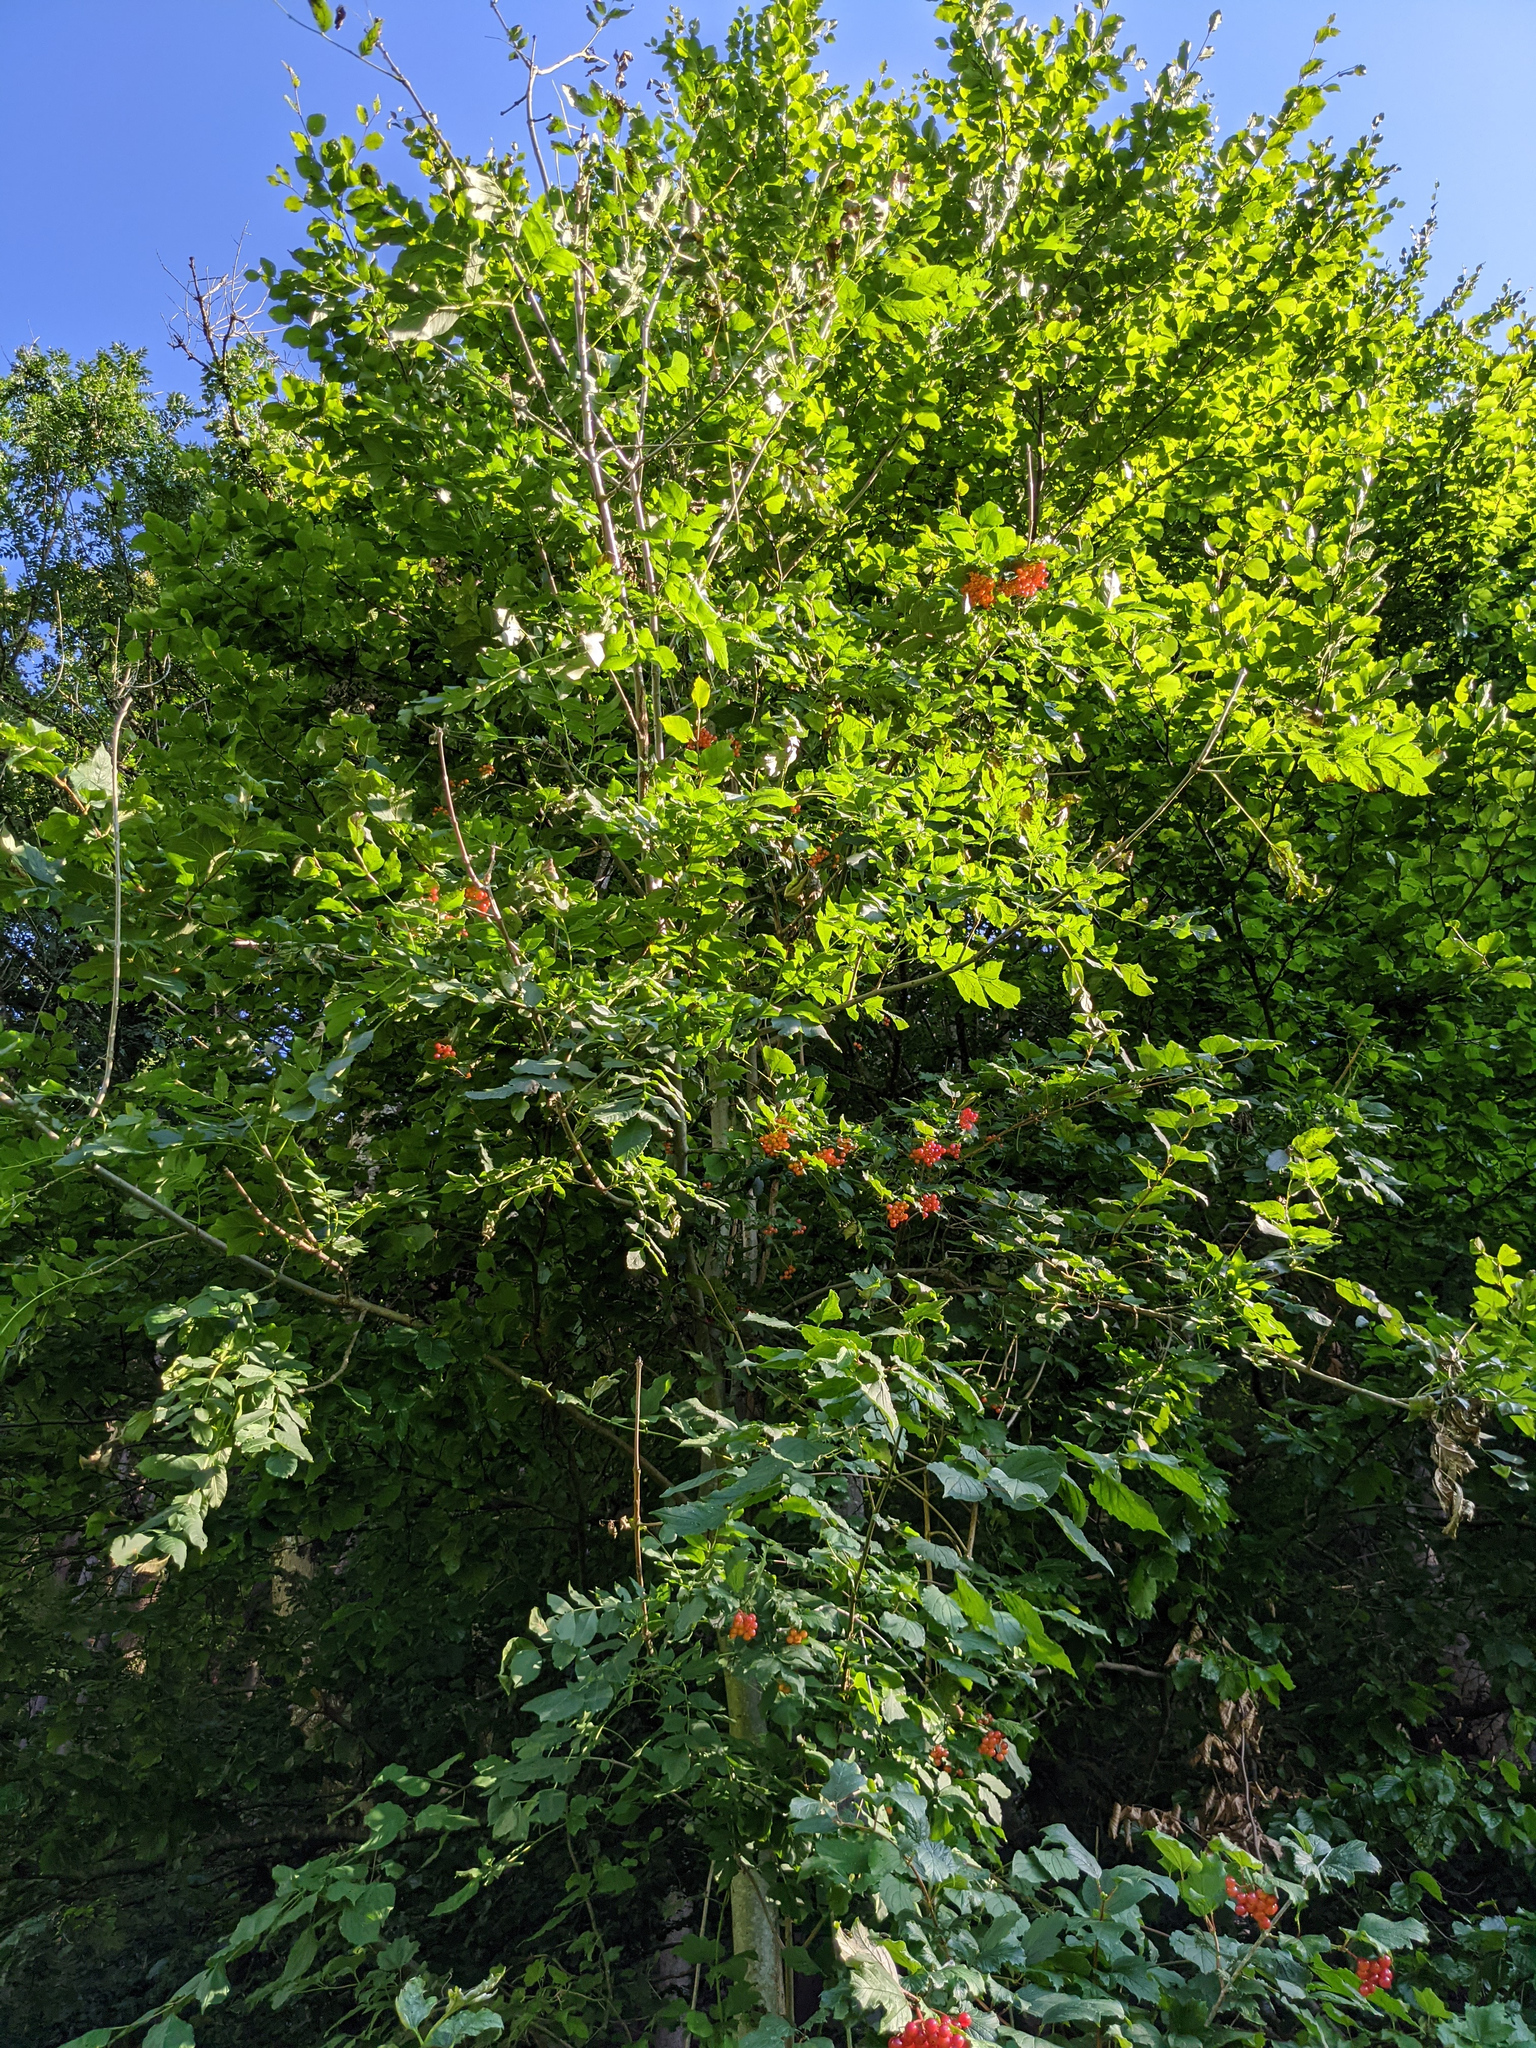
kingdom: Plantae
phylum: Tracheophyta
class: Magnoliopsida
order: Dipsacales
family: Viburnaceae
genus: Viburnum
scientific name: Viburnum opulus
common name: Guelder-rose
